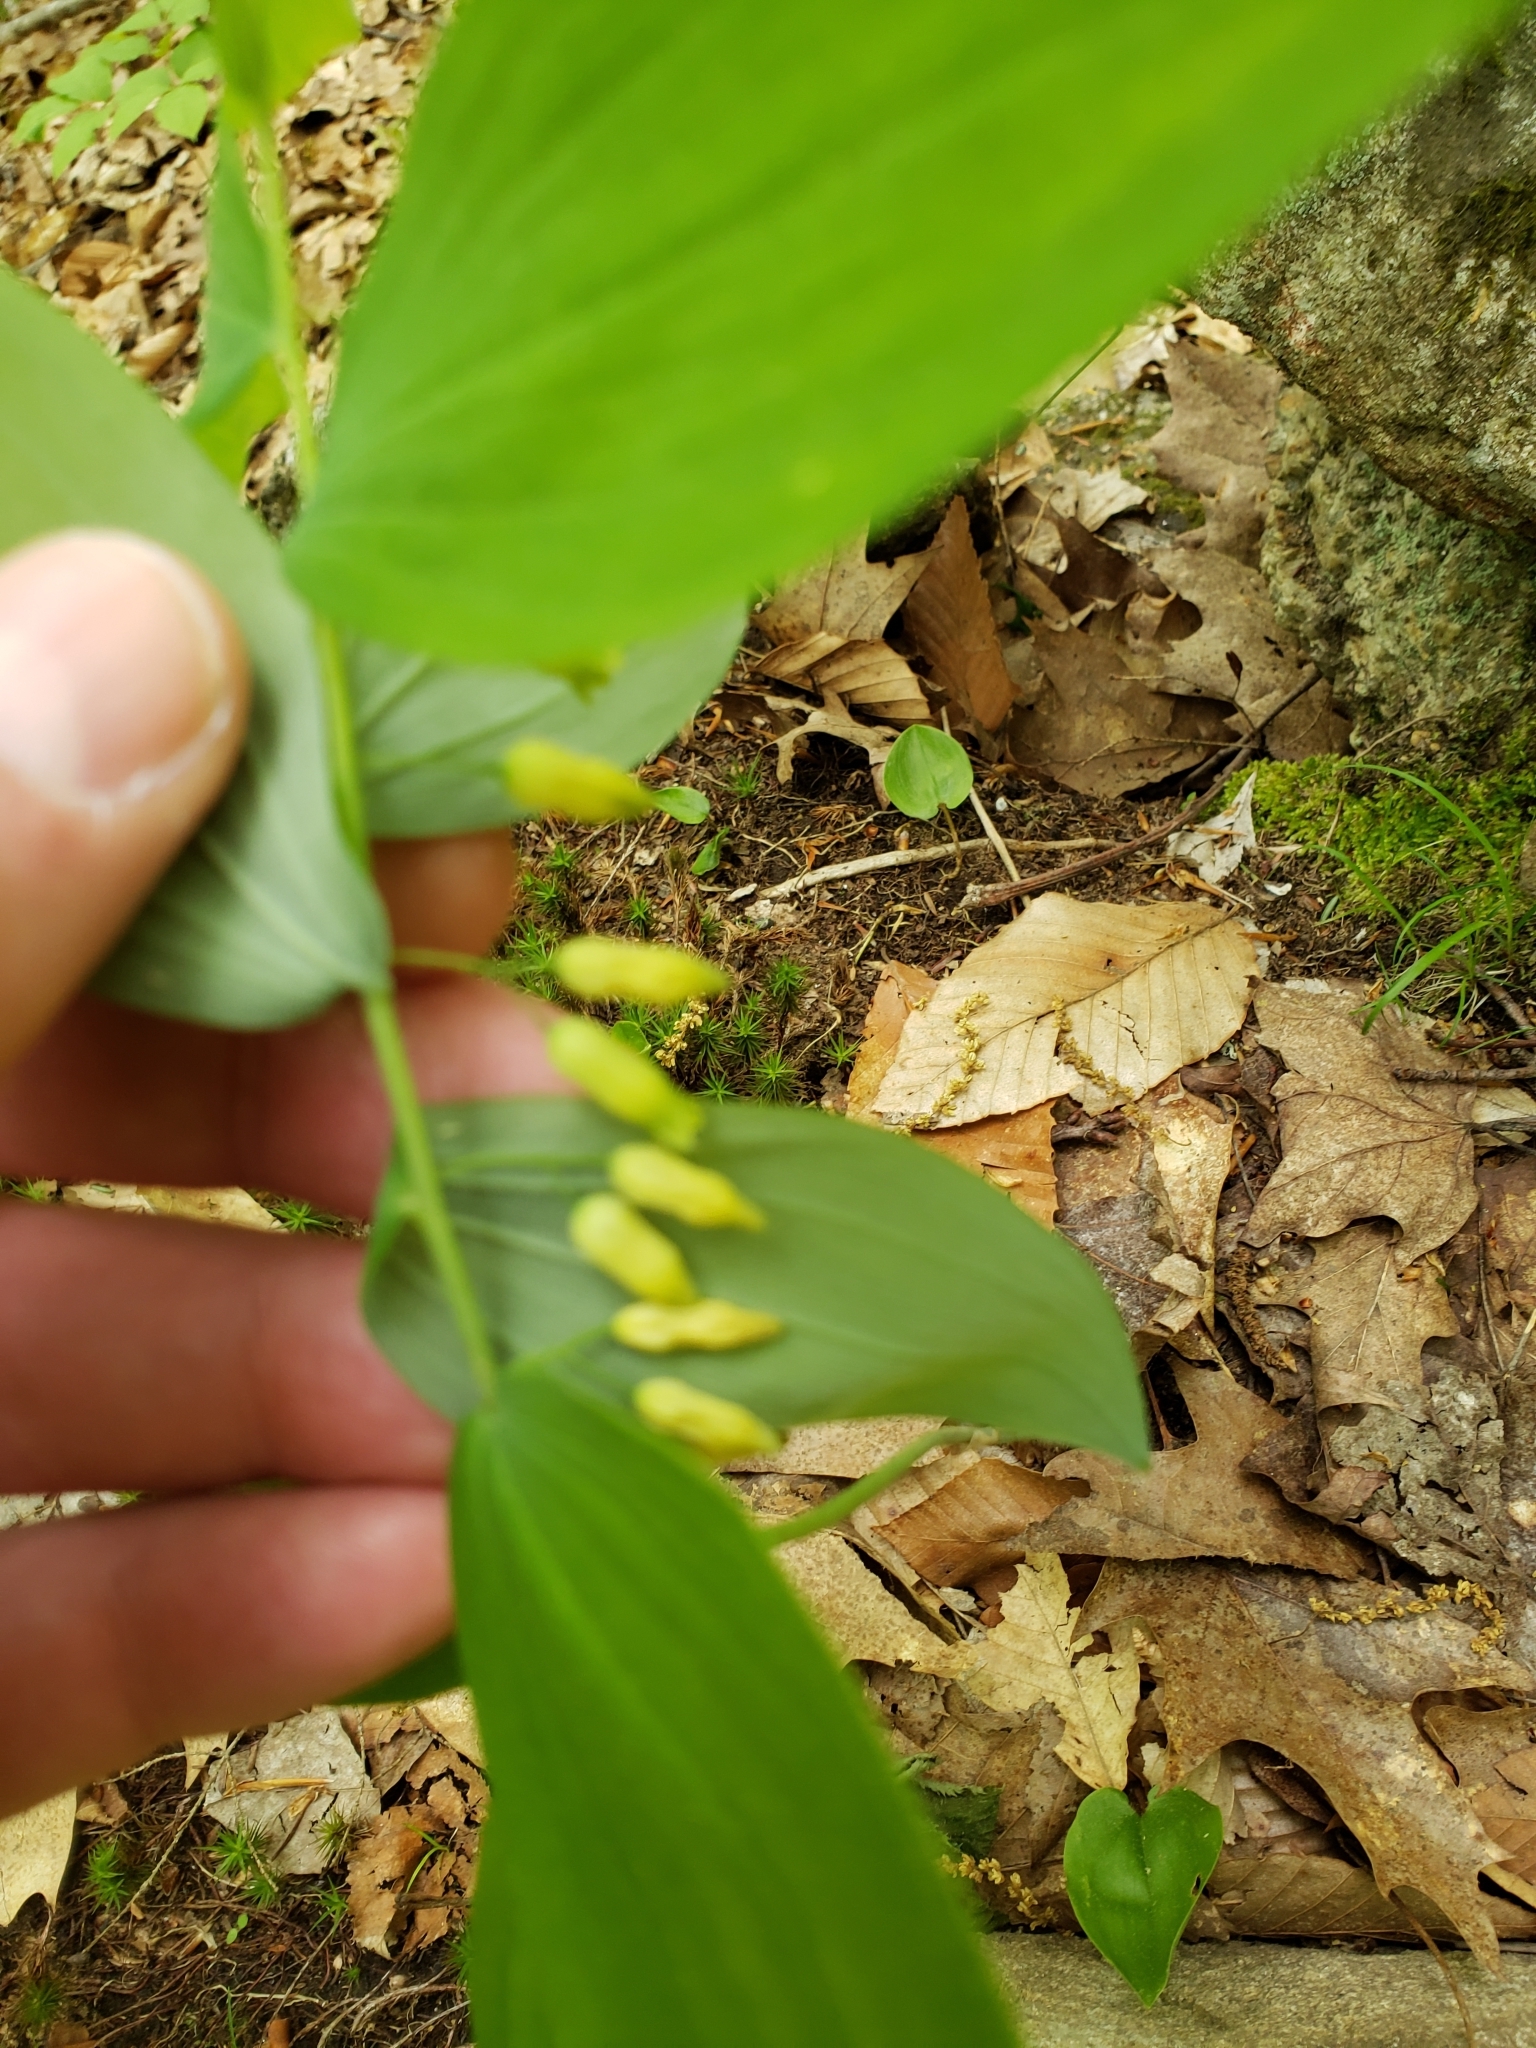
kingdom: Plantae
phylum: Tracheophyta
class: Liliopsida
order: Asparagales
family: Asparagaceae
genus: Polygonatum
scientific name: Polygonatum pubescens
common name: Downy solomon's seal
